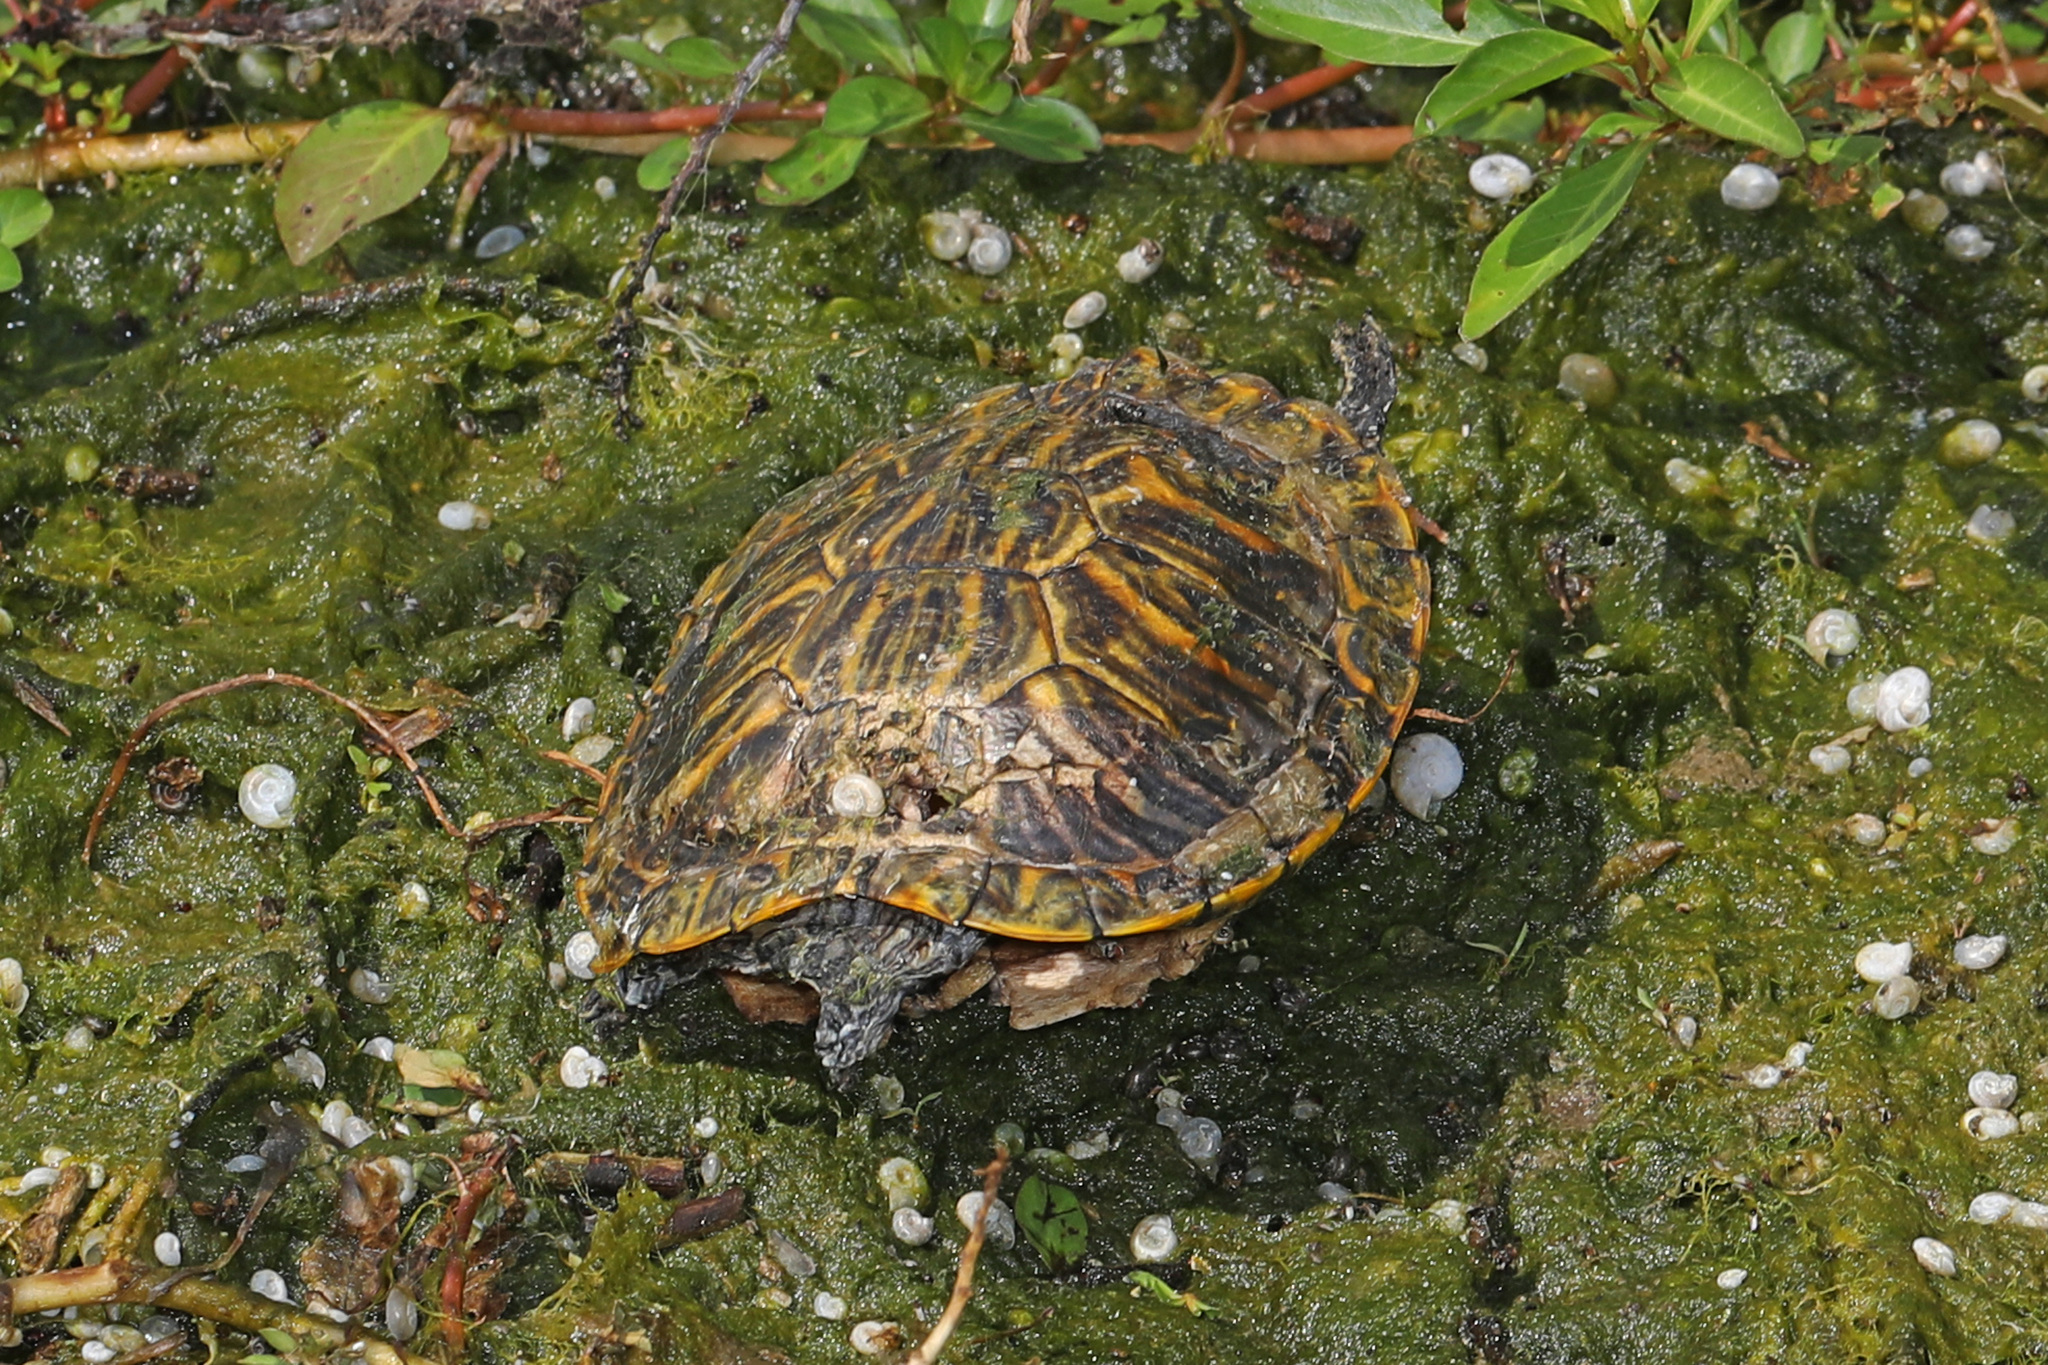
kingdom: Animalia
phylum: Chordata
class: Testudines
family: Emydidae
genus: Trachemys
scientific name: Trachemys scripta
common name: Slider
